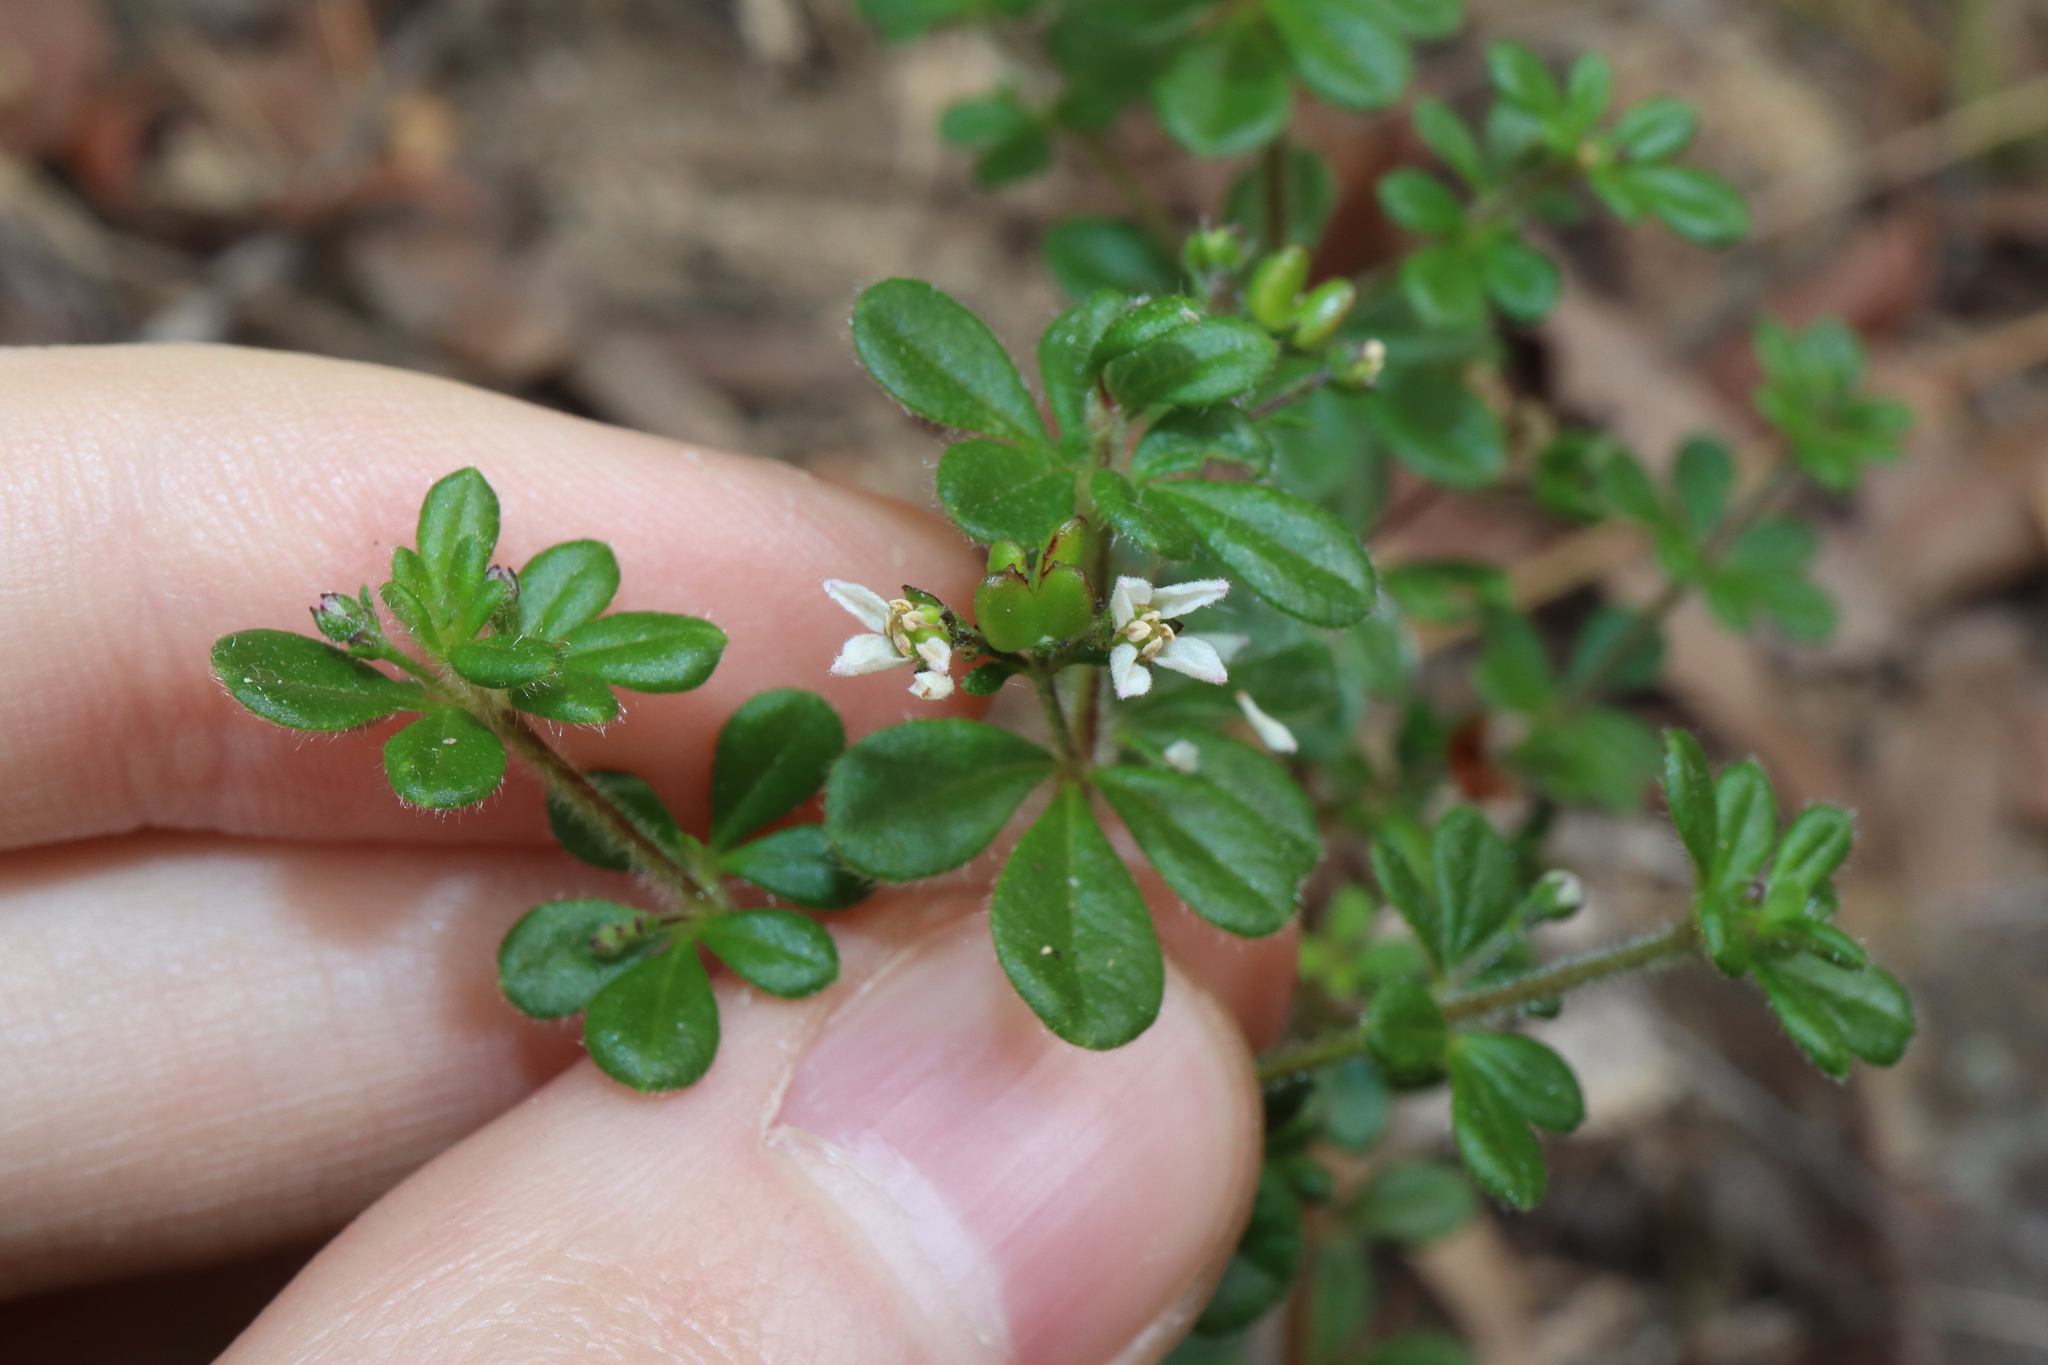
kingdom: Plantae
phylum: Tracheophyta
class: Magnoliopsida
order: Sapindales
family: Rutaceae
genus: Zieria
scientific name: Zieria obovata
